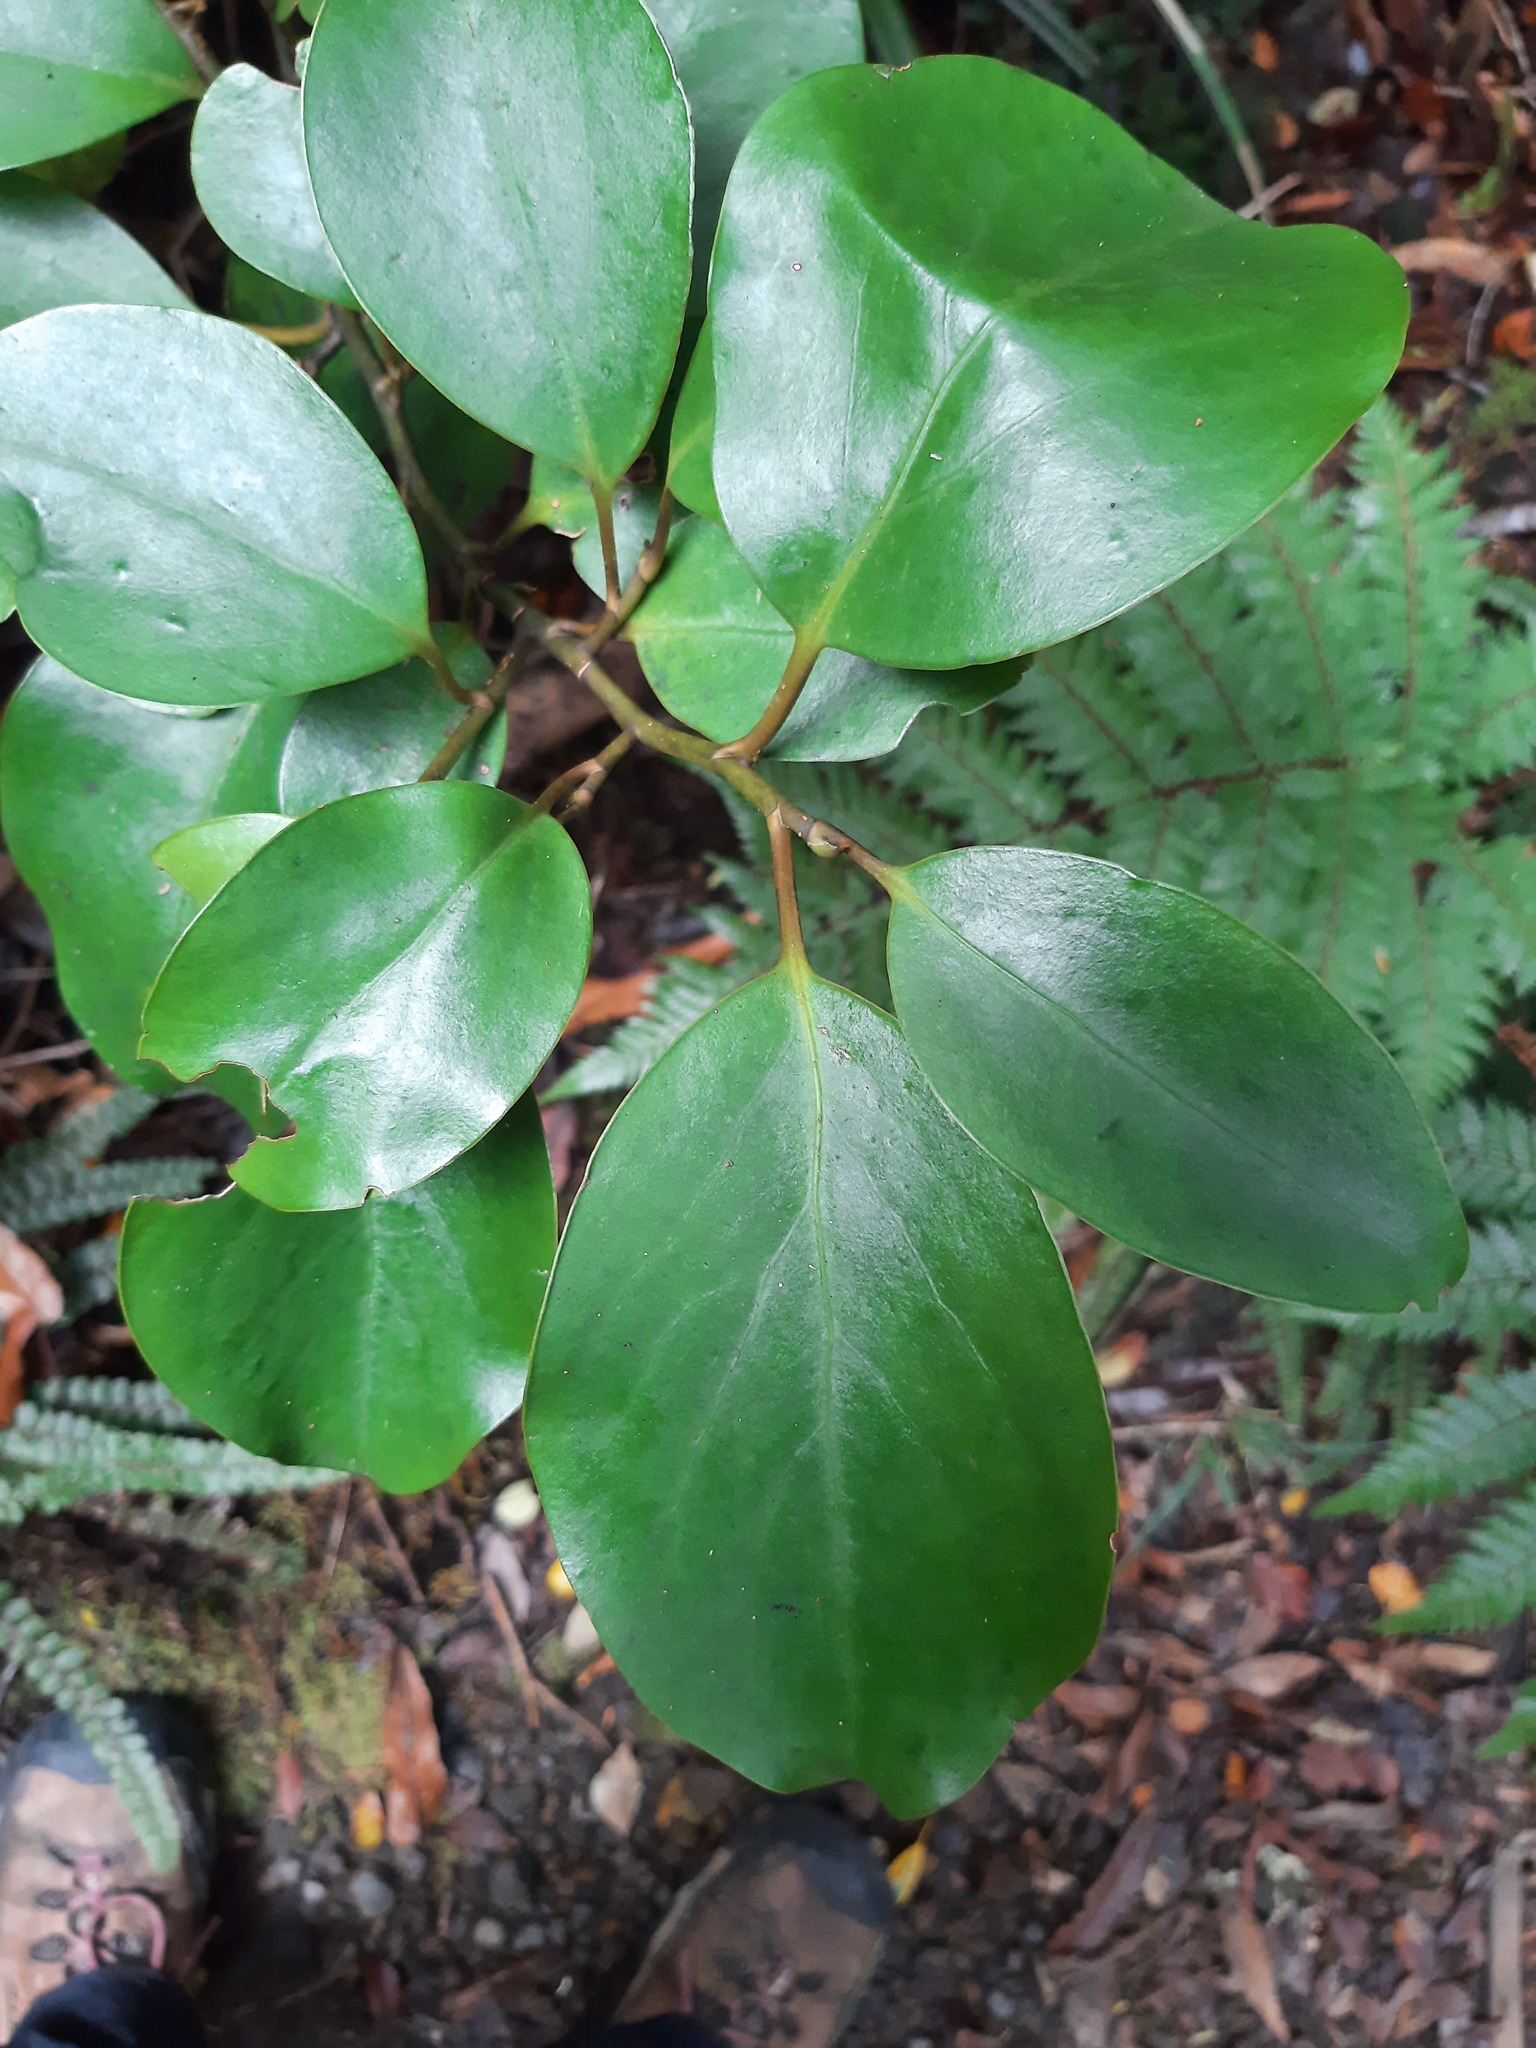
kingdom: Plantae
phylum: Tracheophyta
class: Magnoliopsida
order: Apiales
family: Griseliniaceae
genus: Griselinia
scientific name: Griselinia littoralis
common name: New zealand broadleaf
